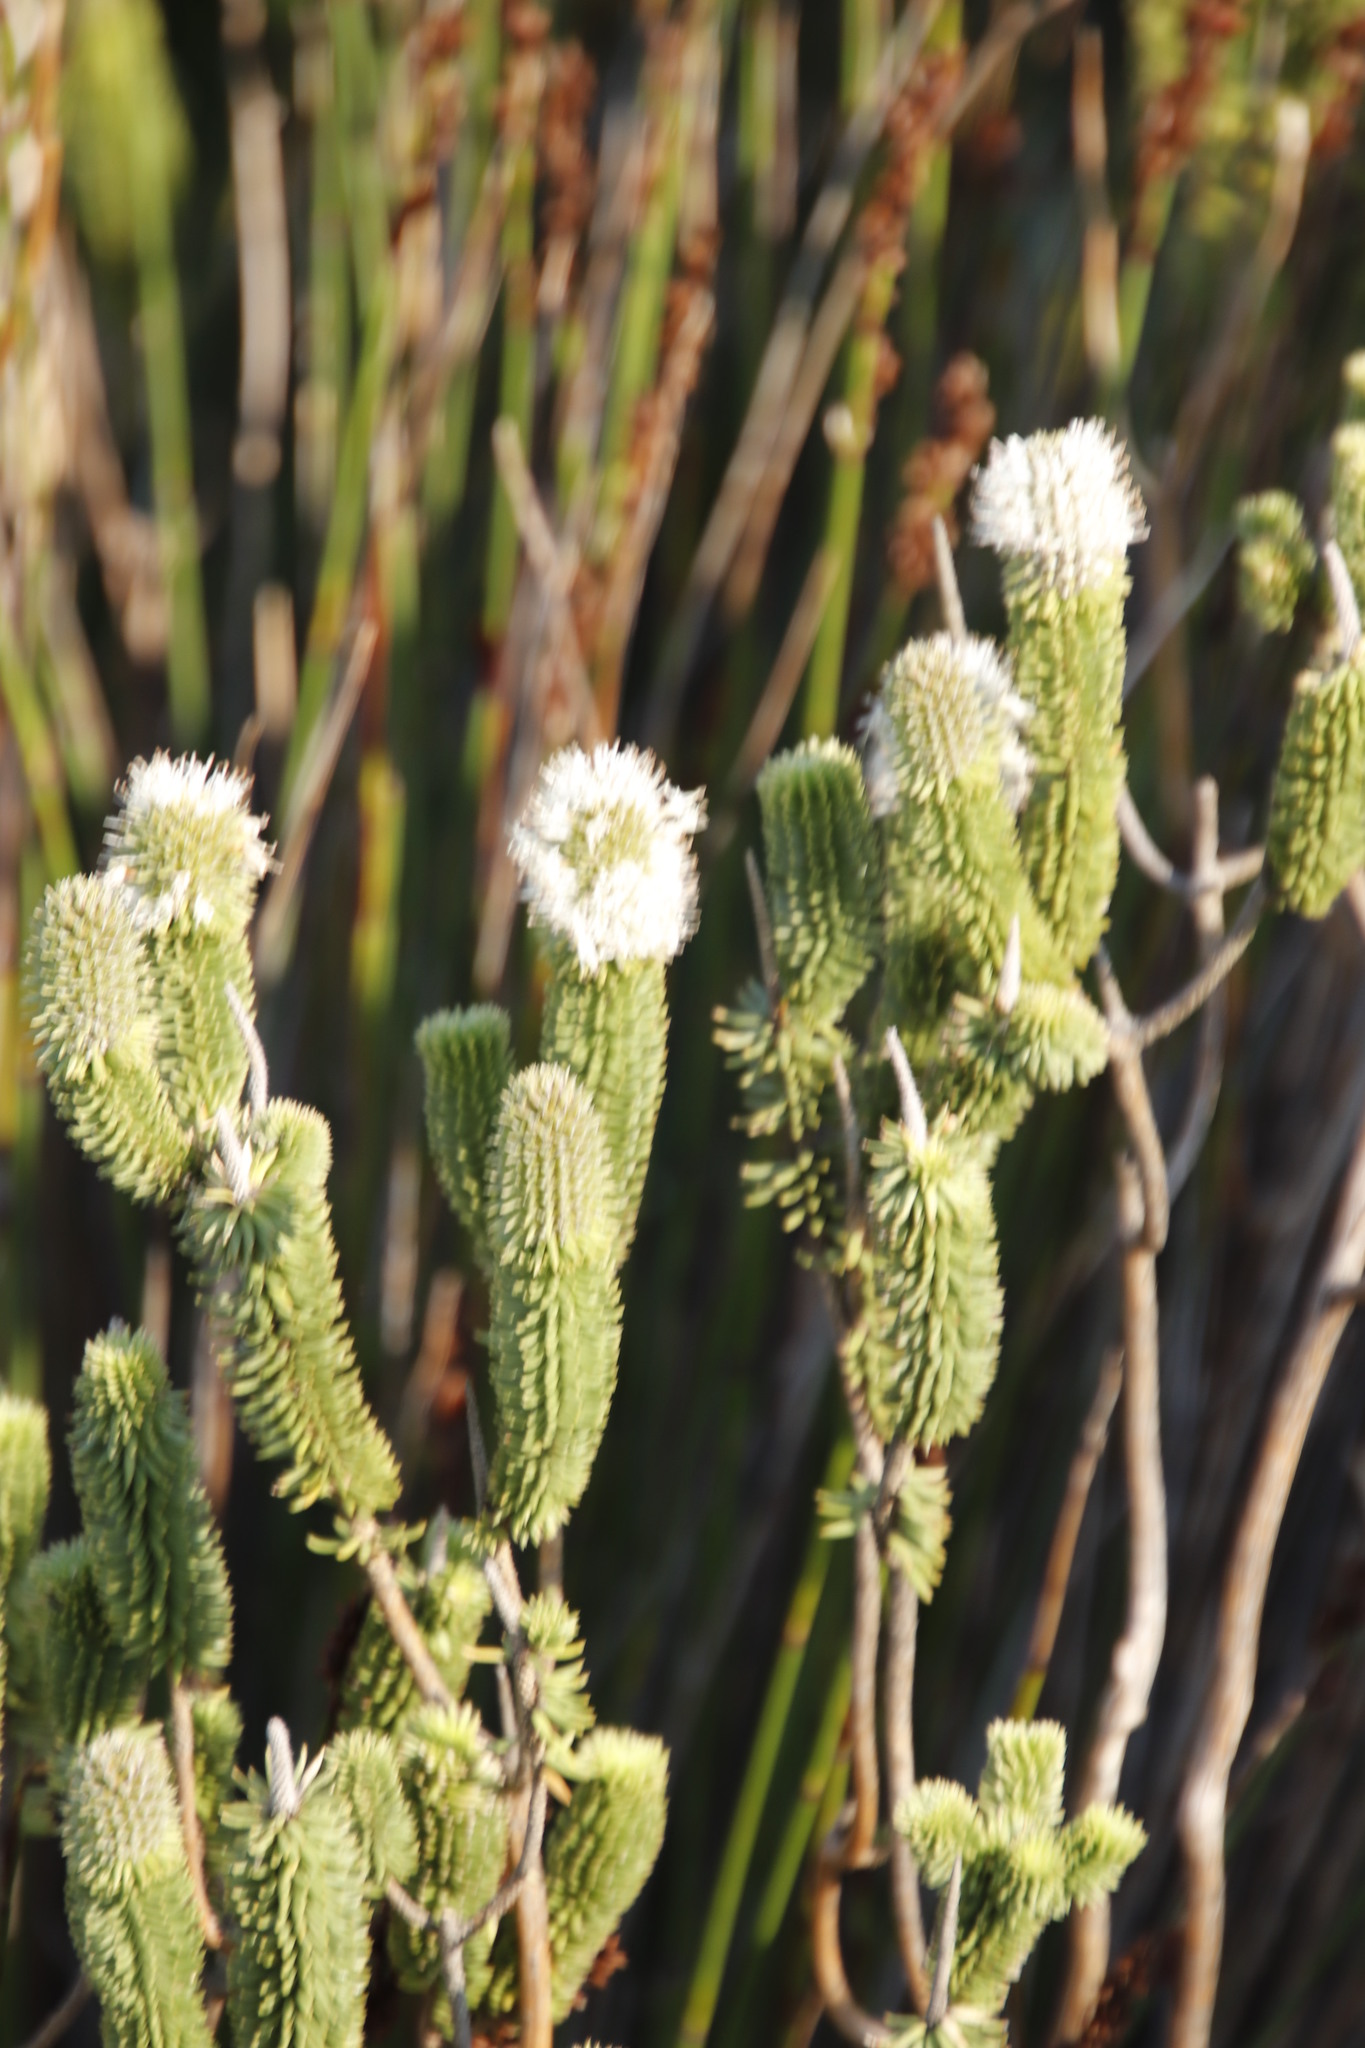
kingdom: Plantae
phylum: Tracheophyta
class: Magnoliopsida
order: Lamiales
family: Stilbaceae
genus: Stilbe
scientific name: Stilbe vestita
